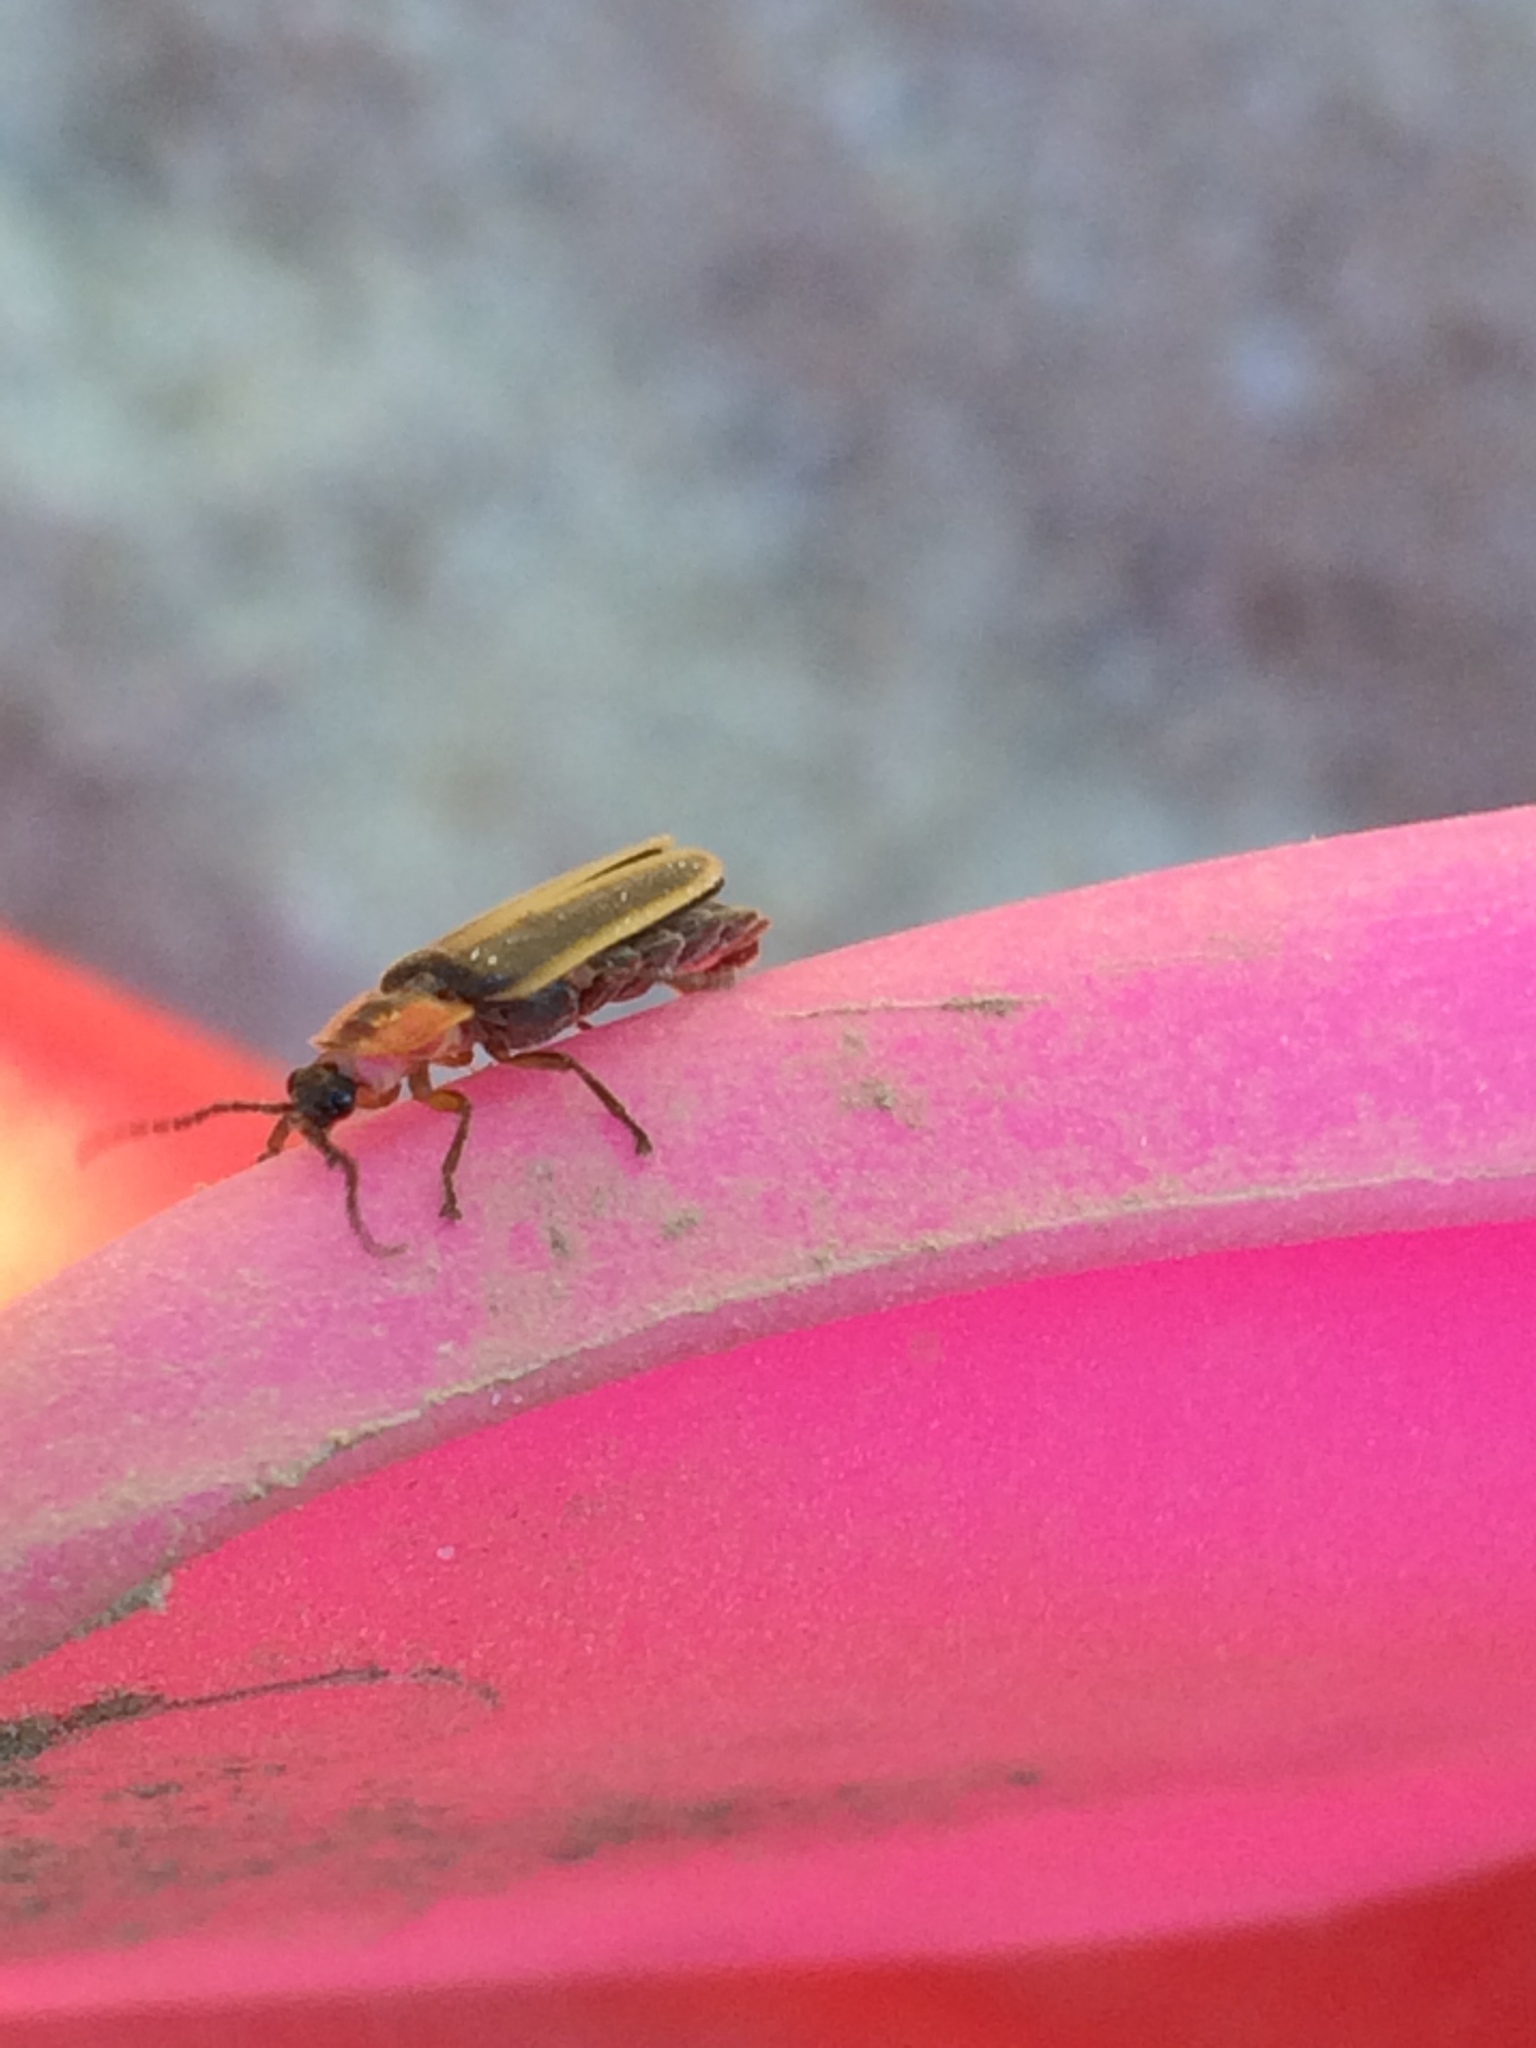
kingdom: Animalia
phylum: Arthropoda
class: Insecta
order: Coleoptera
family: Lampyridae
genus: Photinus
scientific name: Photinus
